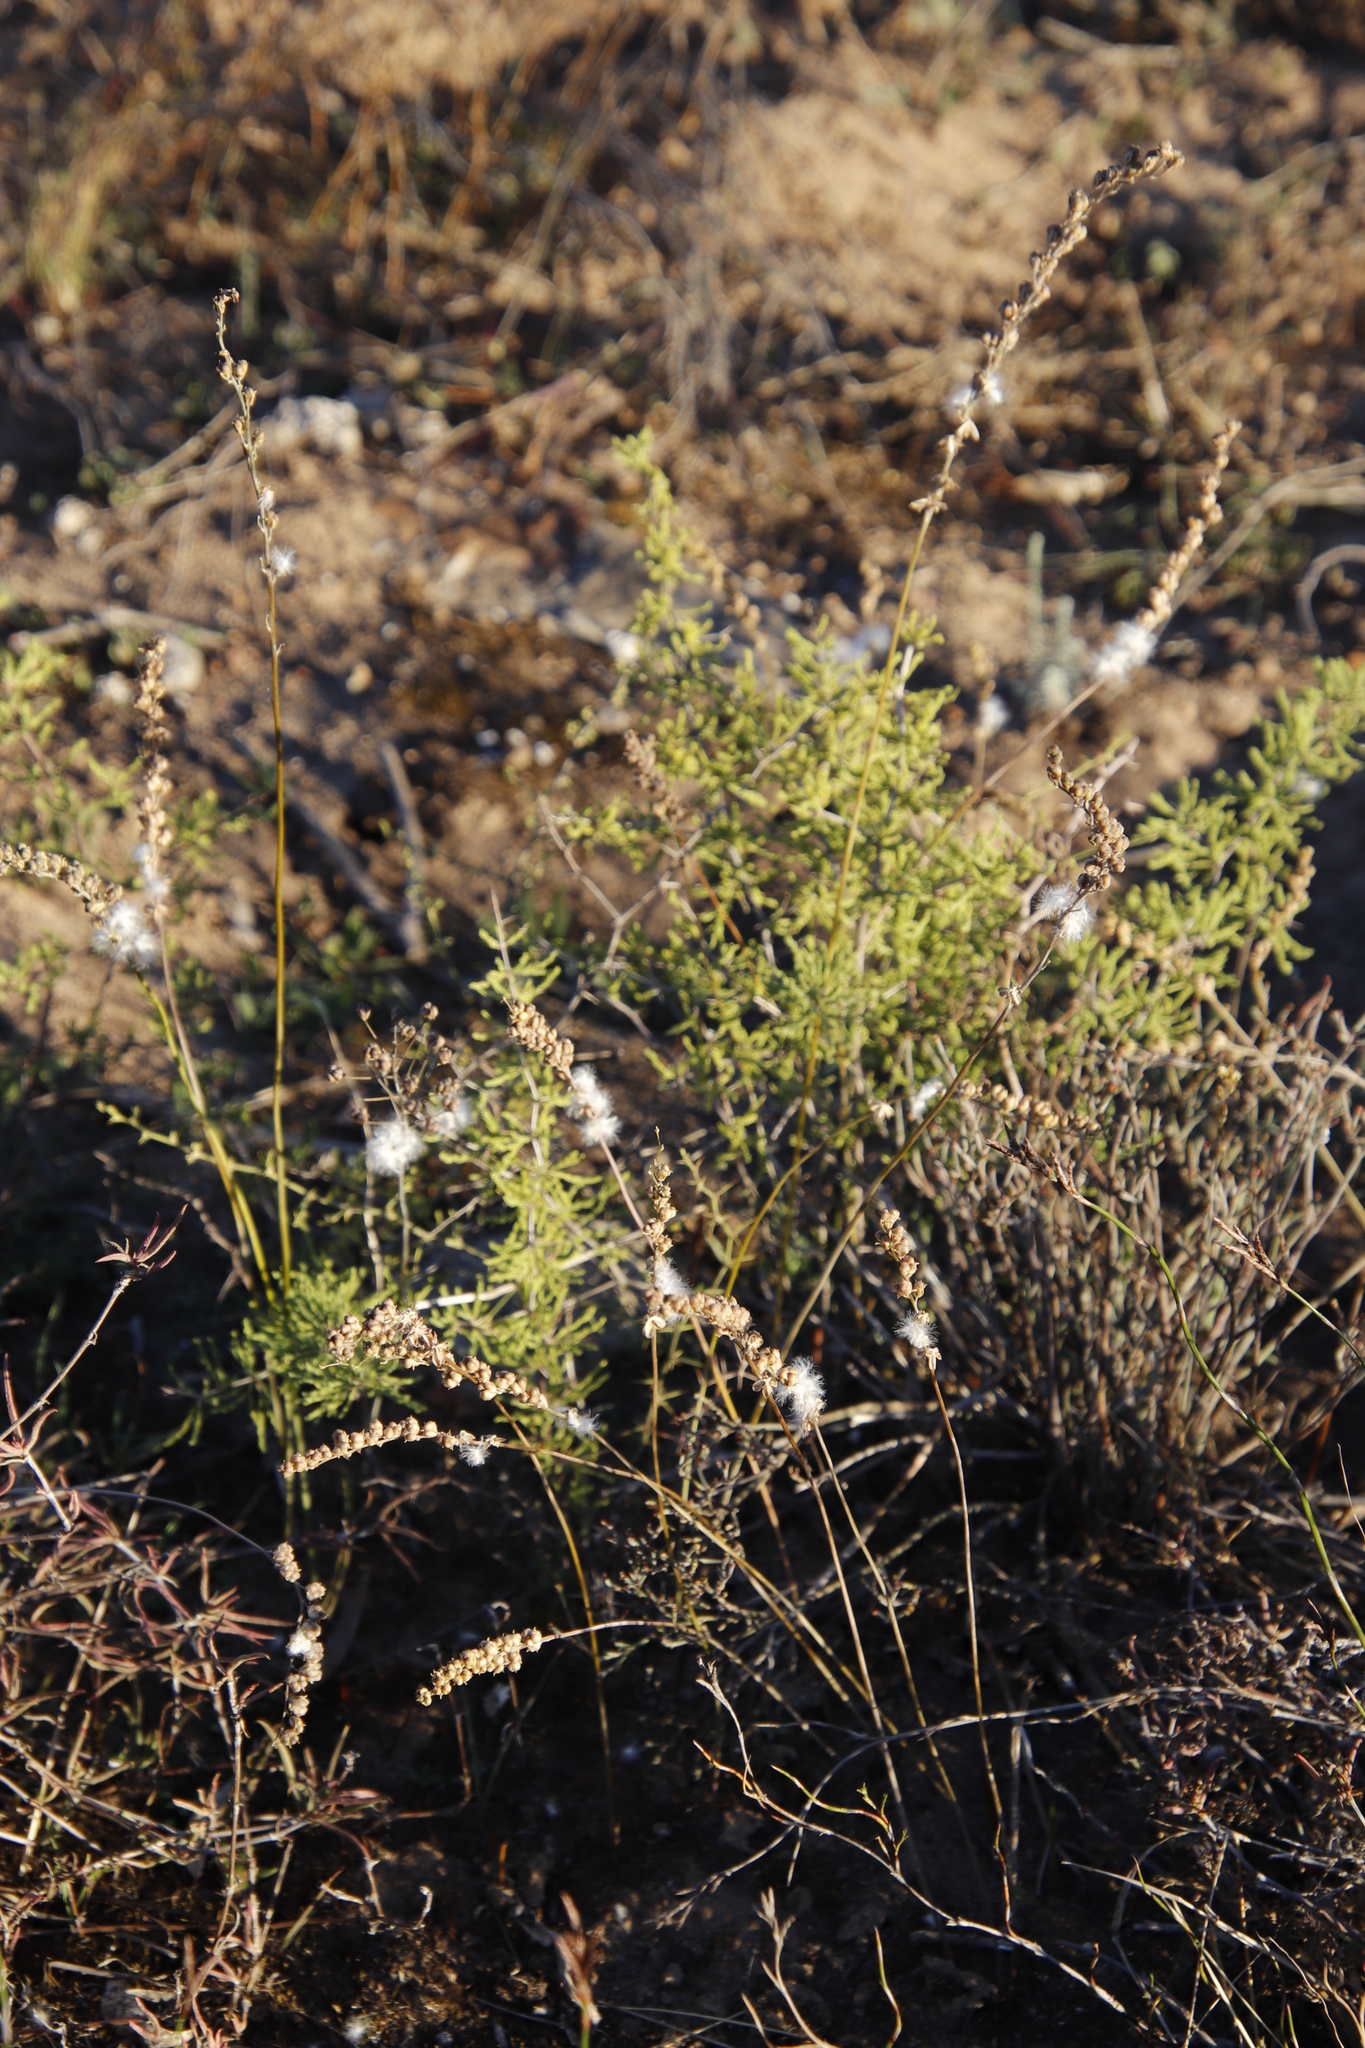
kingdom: Plantae
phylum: Tracheophyta
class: Liliopsida
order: Asparagales
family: Asparagaceae
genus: Eriospermum
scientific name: Eriospermum lanceifolium
